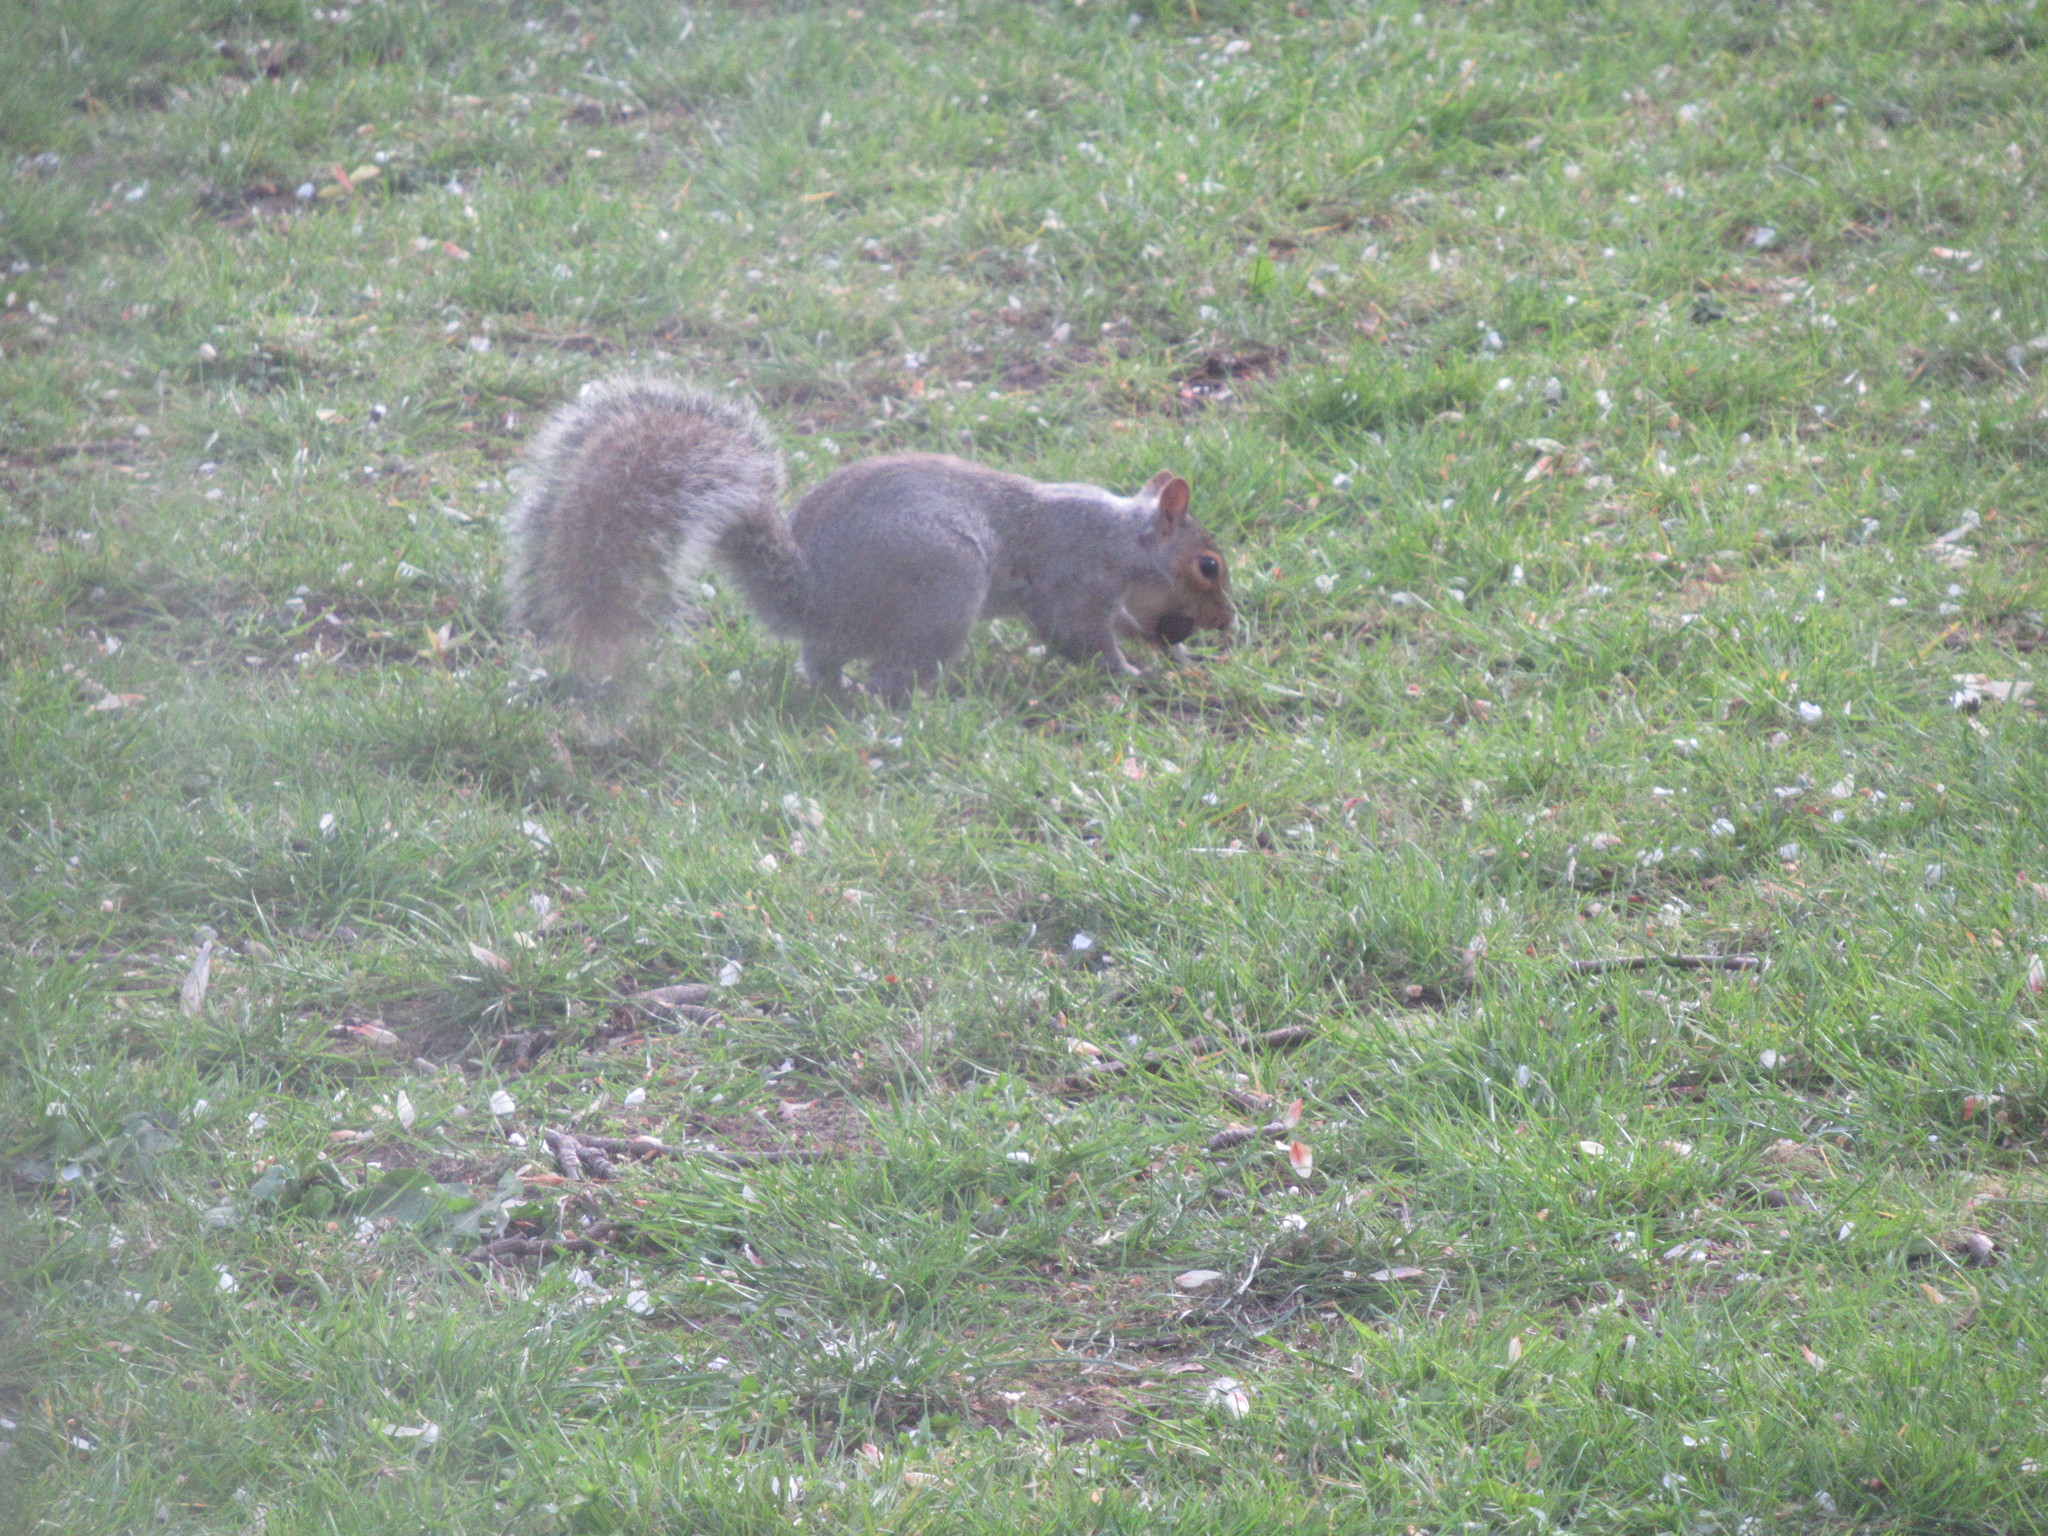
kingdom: Animalia
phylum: Chordata
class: Mammalia
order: Rodentia
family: Sciuridae
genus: Sciurus
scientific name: Sciurus carolinensis
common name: Eastern gray squirrel
